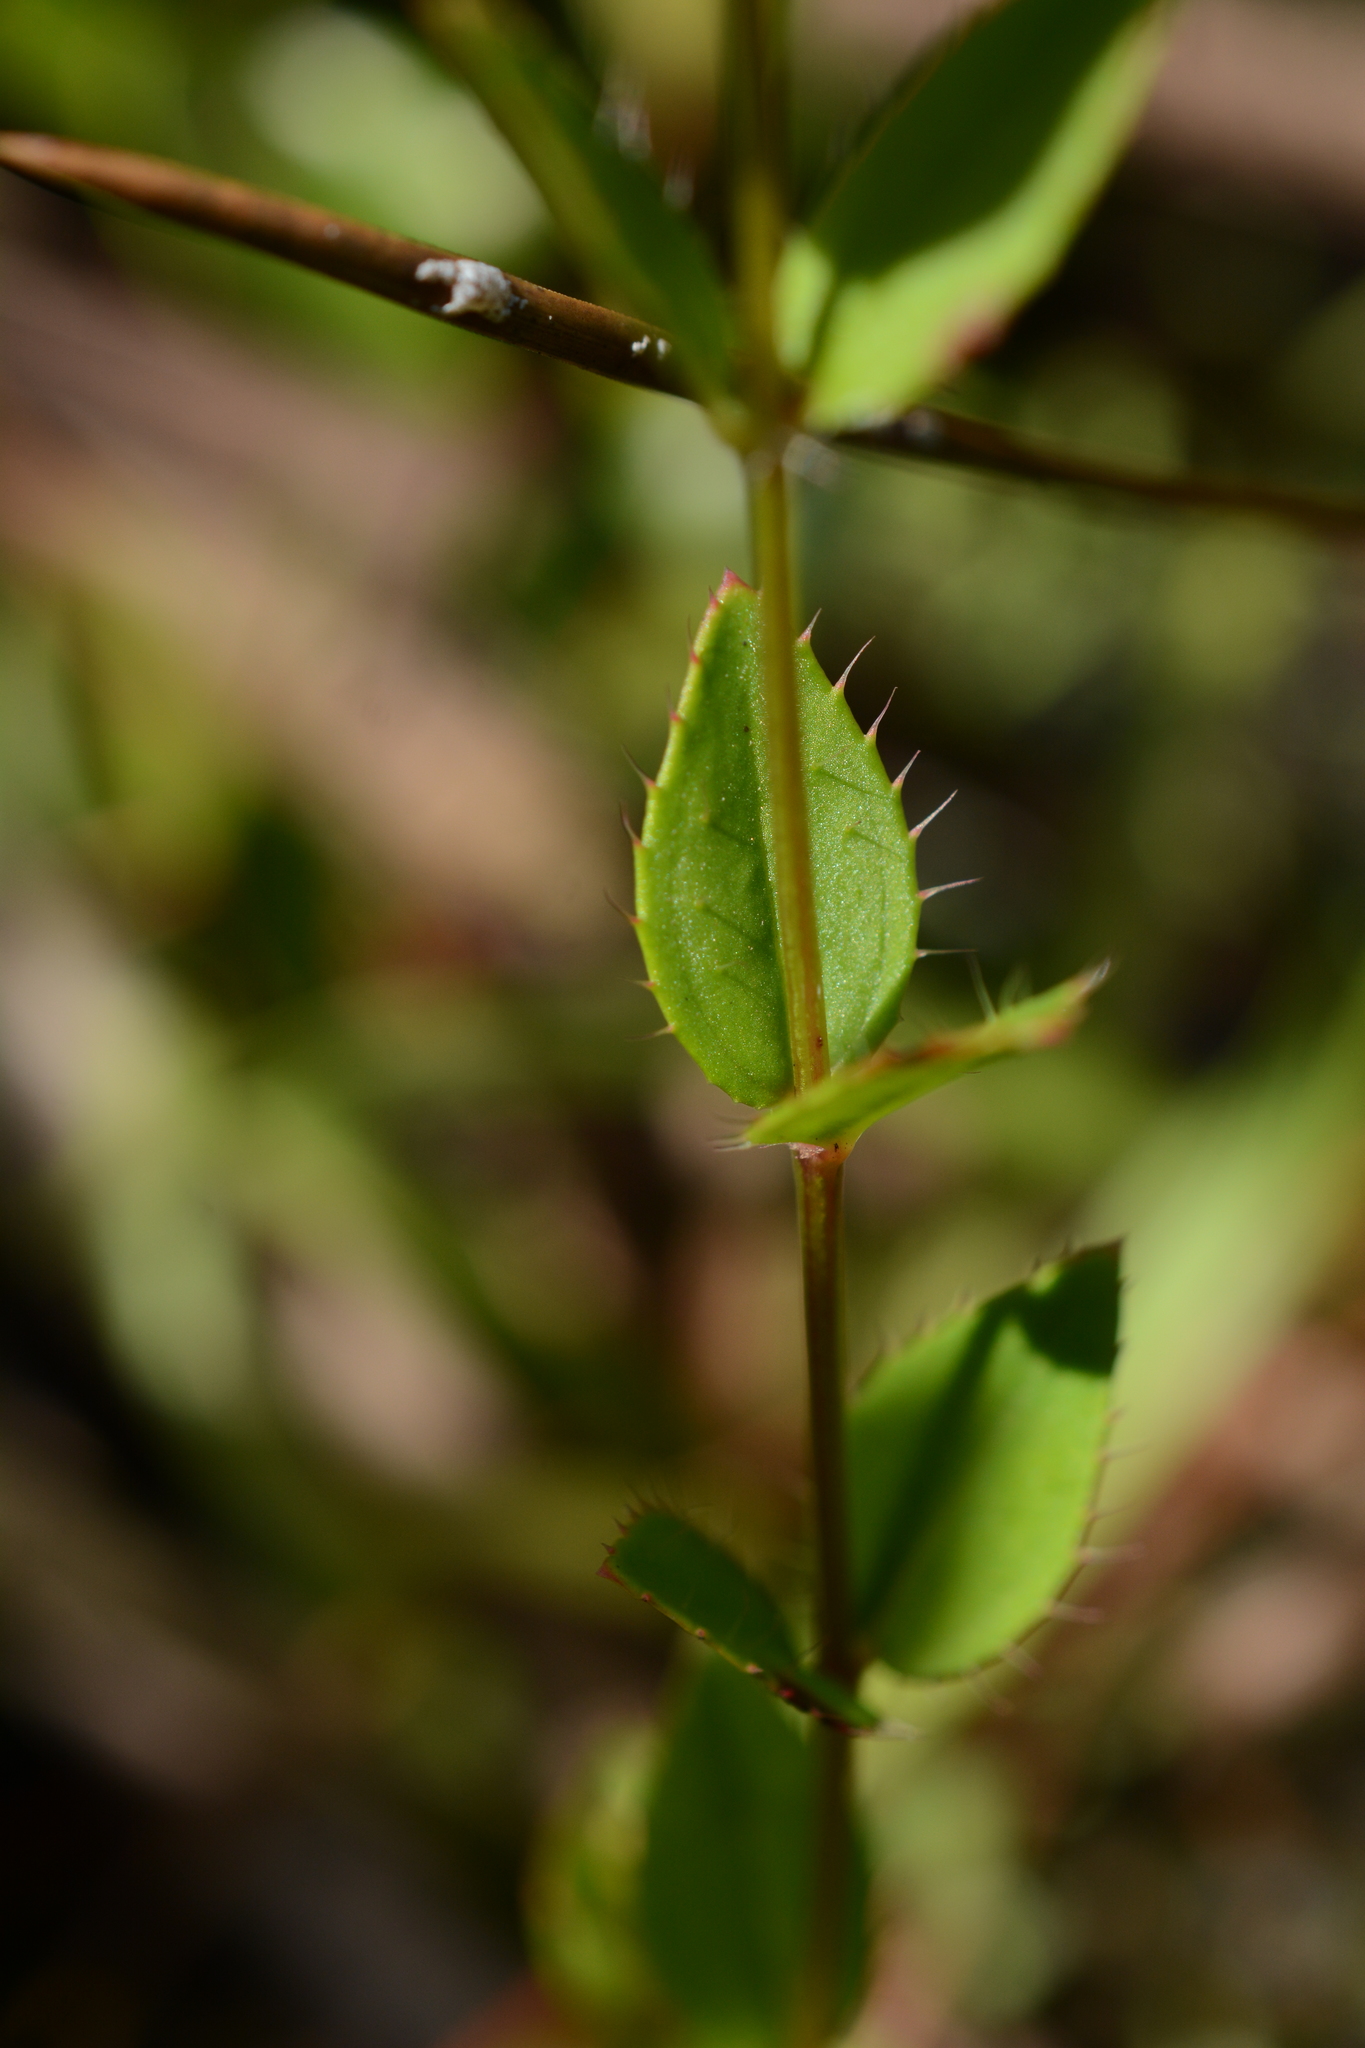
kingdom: Plantae
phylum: Tracheophyta
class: Magnoliopsida
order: Myrtales
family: Melastomataceae
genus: Rhexia
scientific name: Rhexia petiolata
